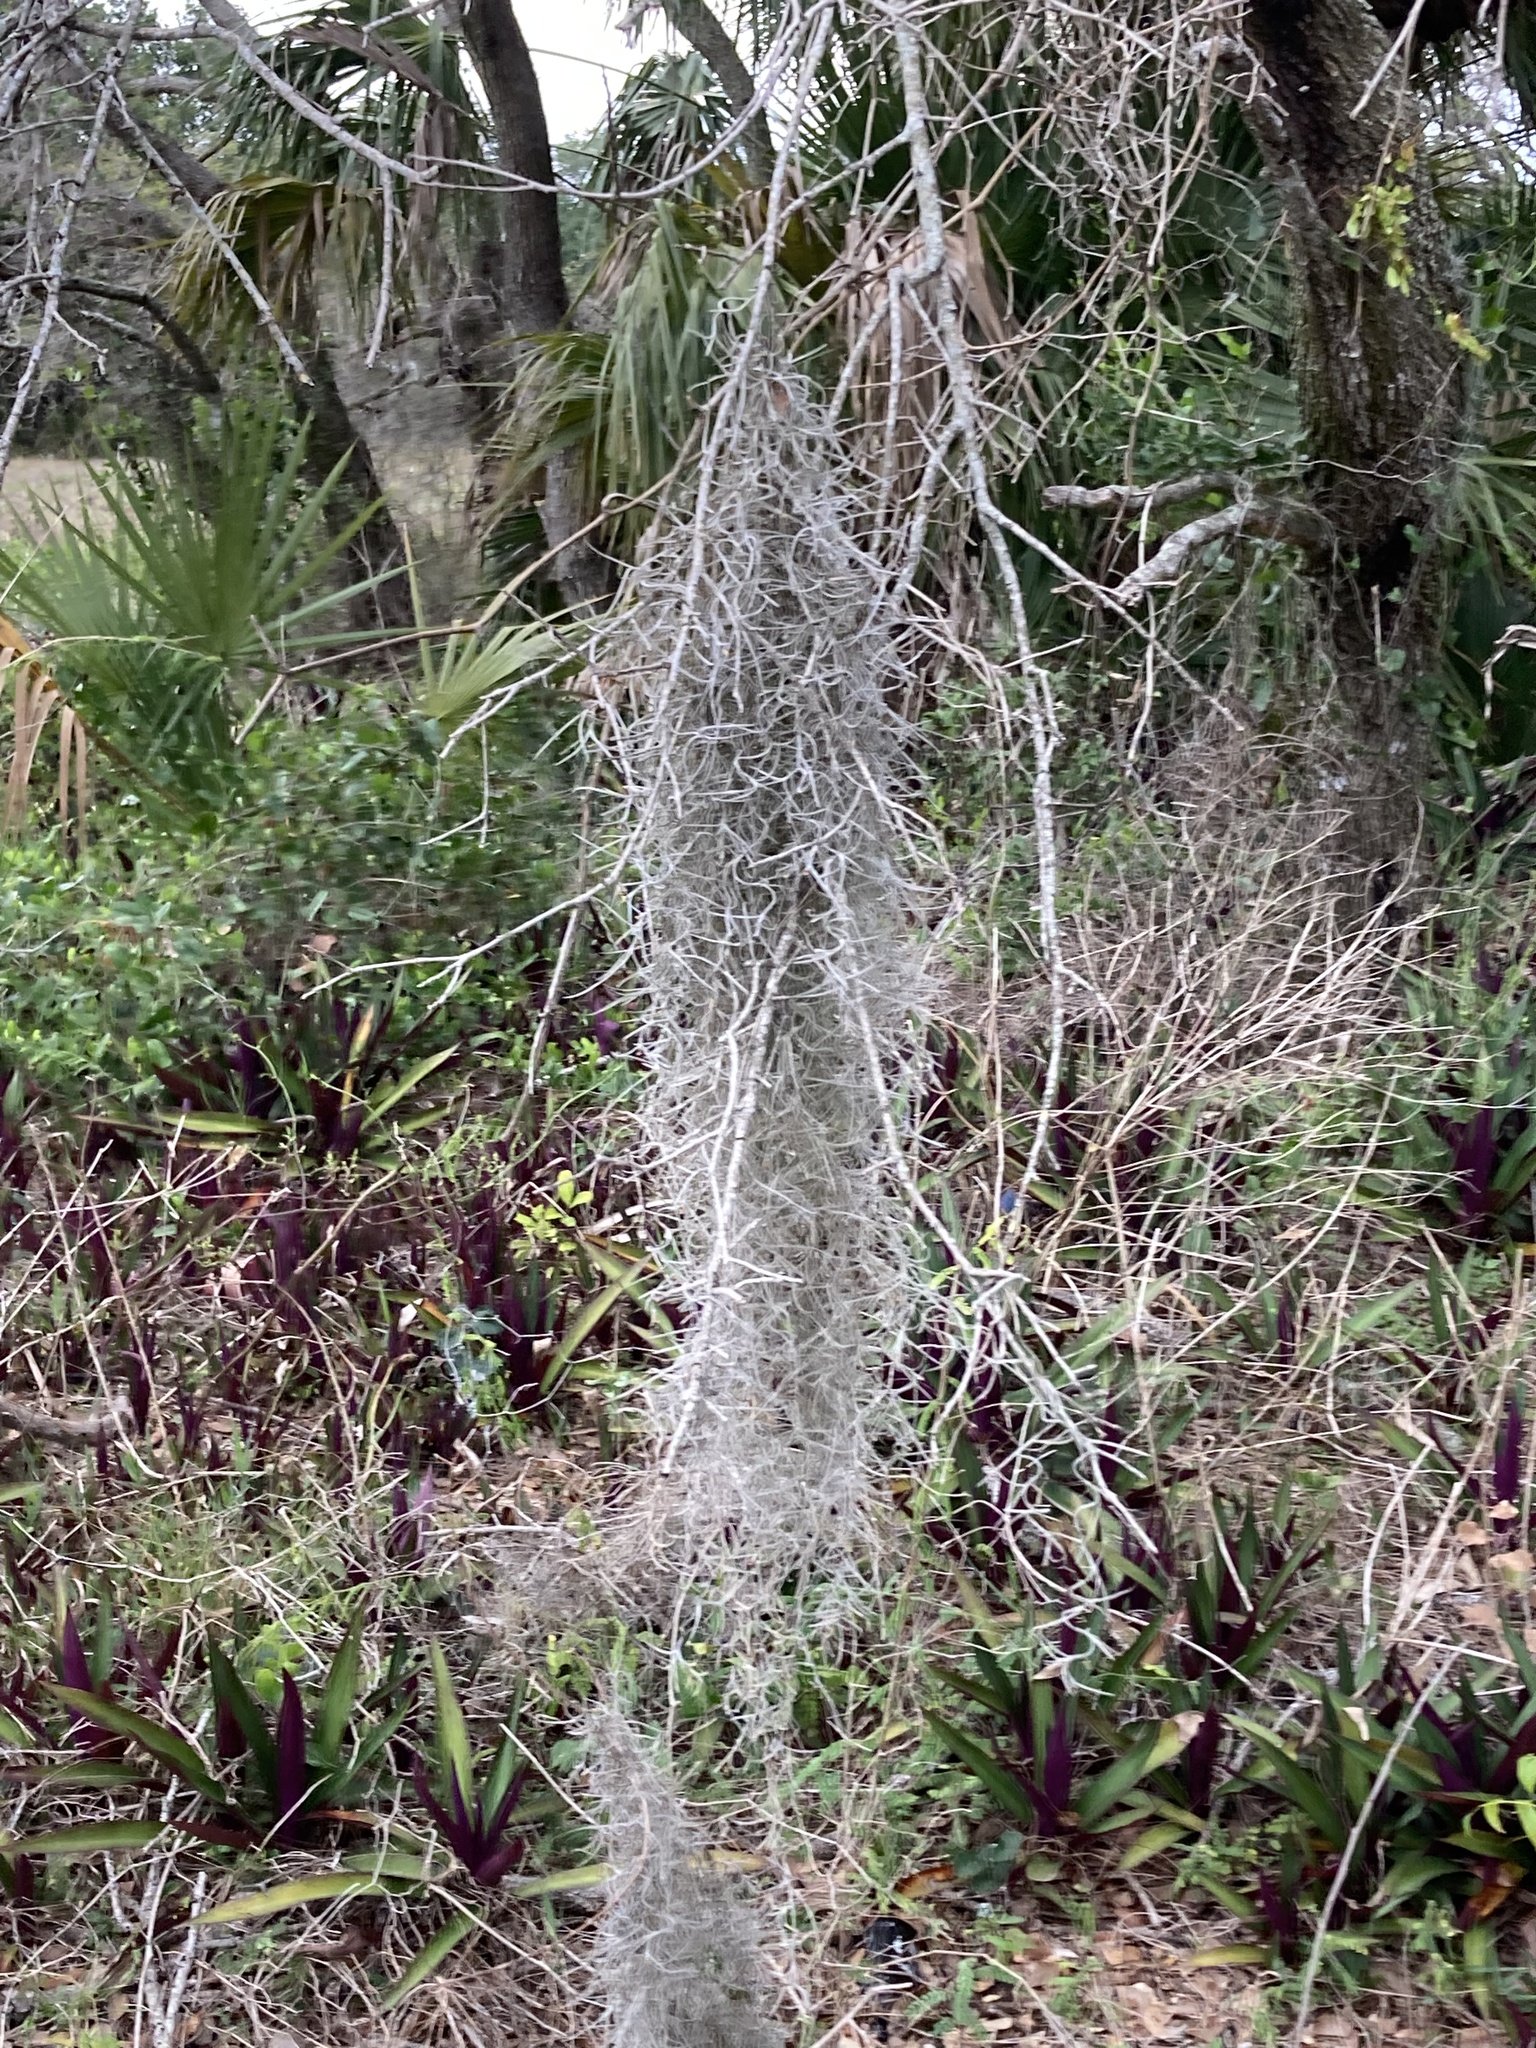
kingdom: Plantae
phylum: Tracheophyta
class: Liliopsida
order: Poales
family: Bromeliaceae
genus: Tillandsia
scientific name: Tillandsia usneoides
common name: Spanish moss
